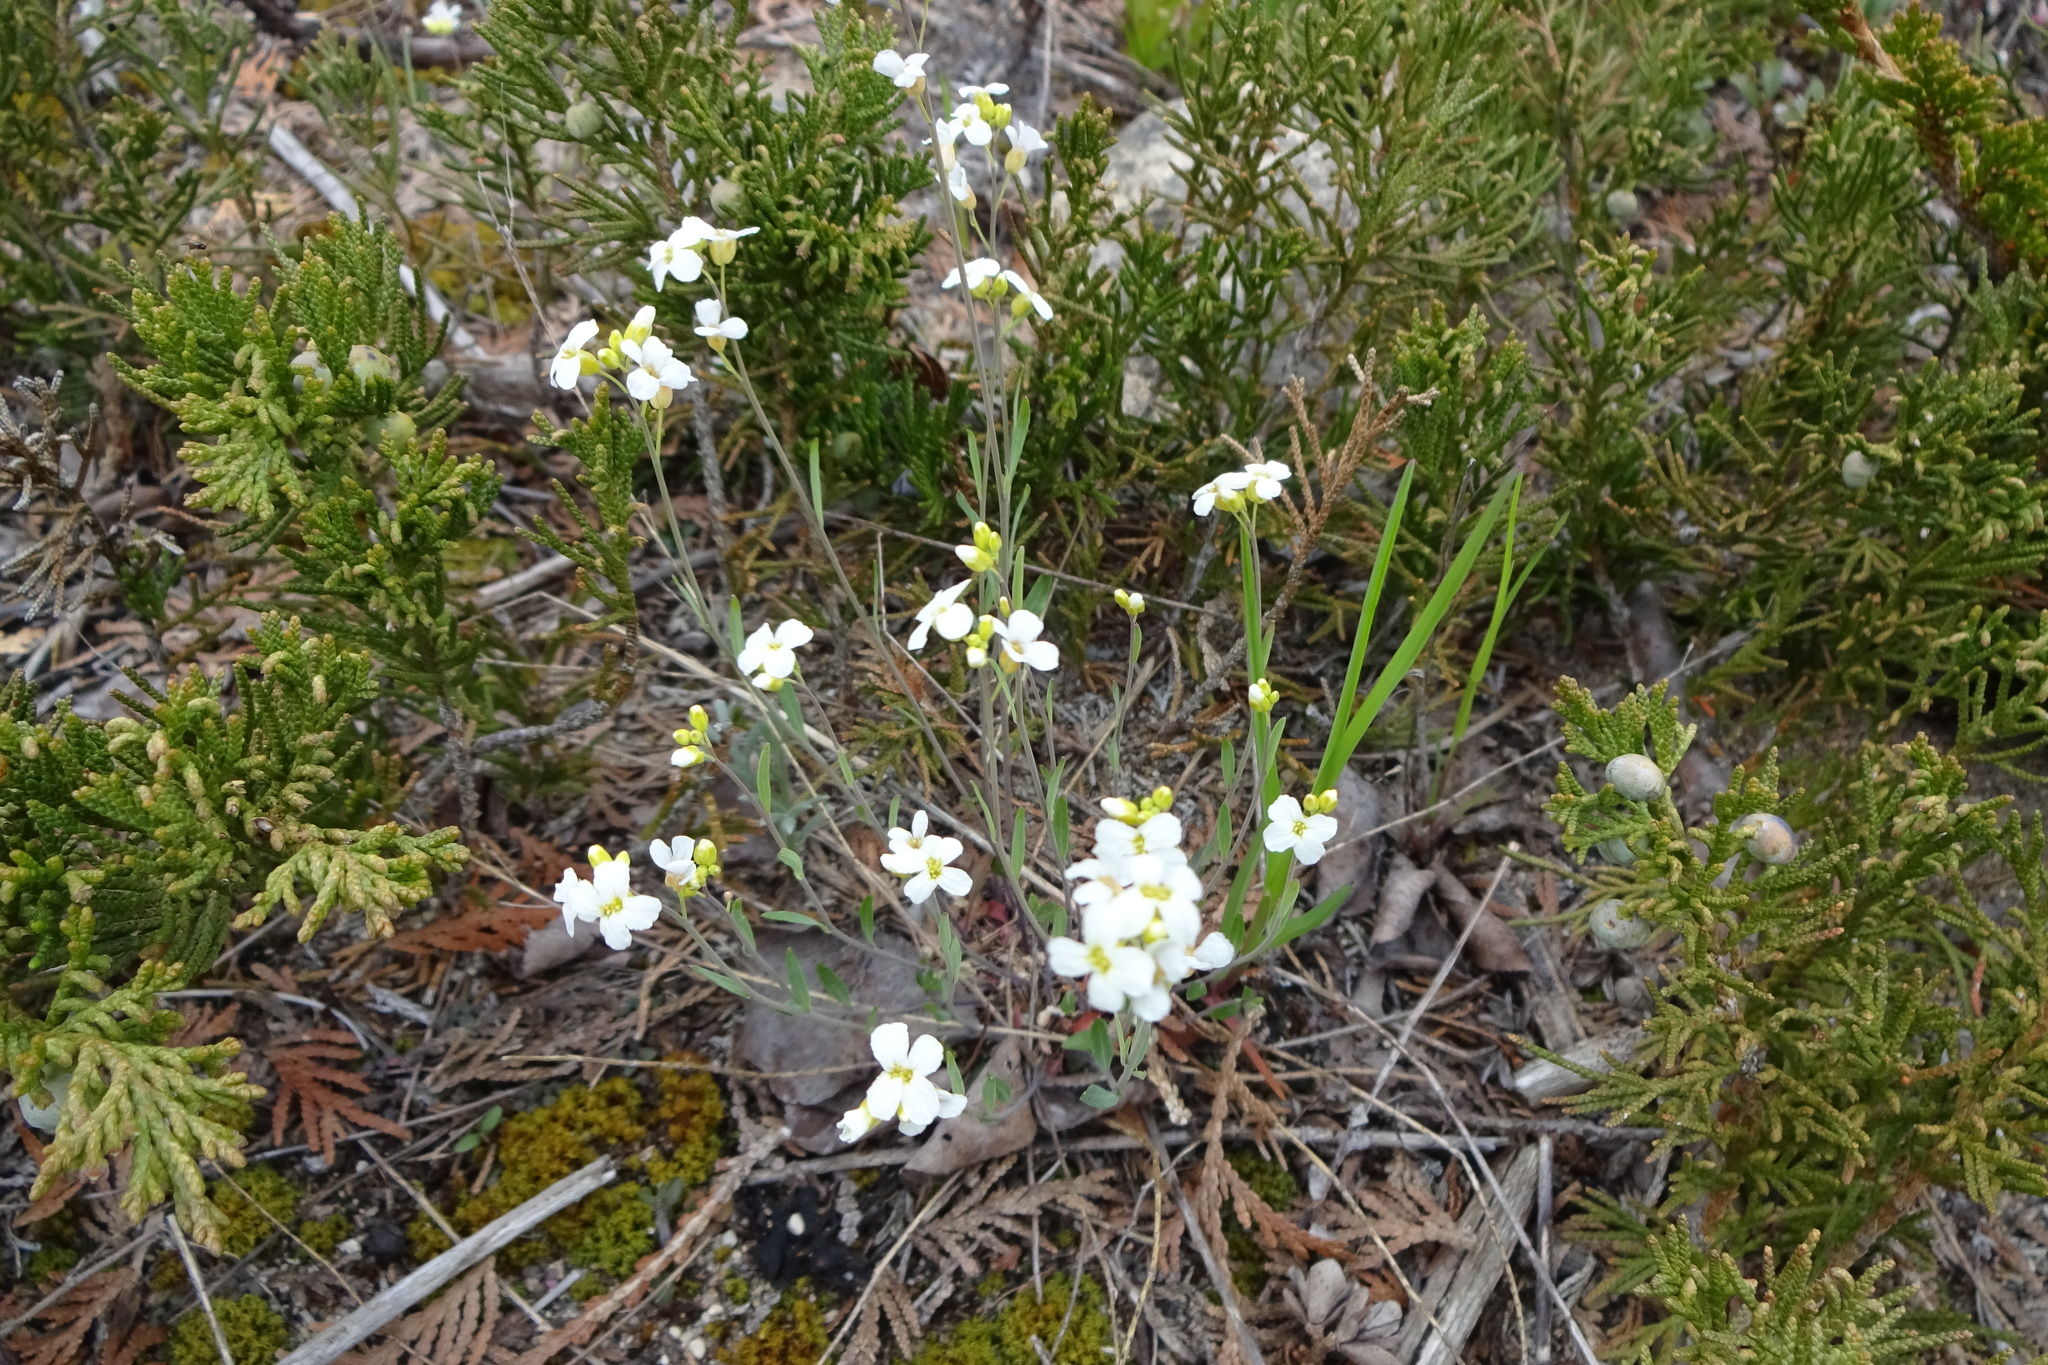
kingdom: Plantae
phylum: Tracheophyta
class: Magnoliopsida
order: Brassicales
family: Brassicaceae
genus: Arabidopsis
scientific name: Arabidopsis lyrata
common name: Lyrate rockcress
